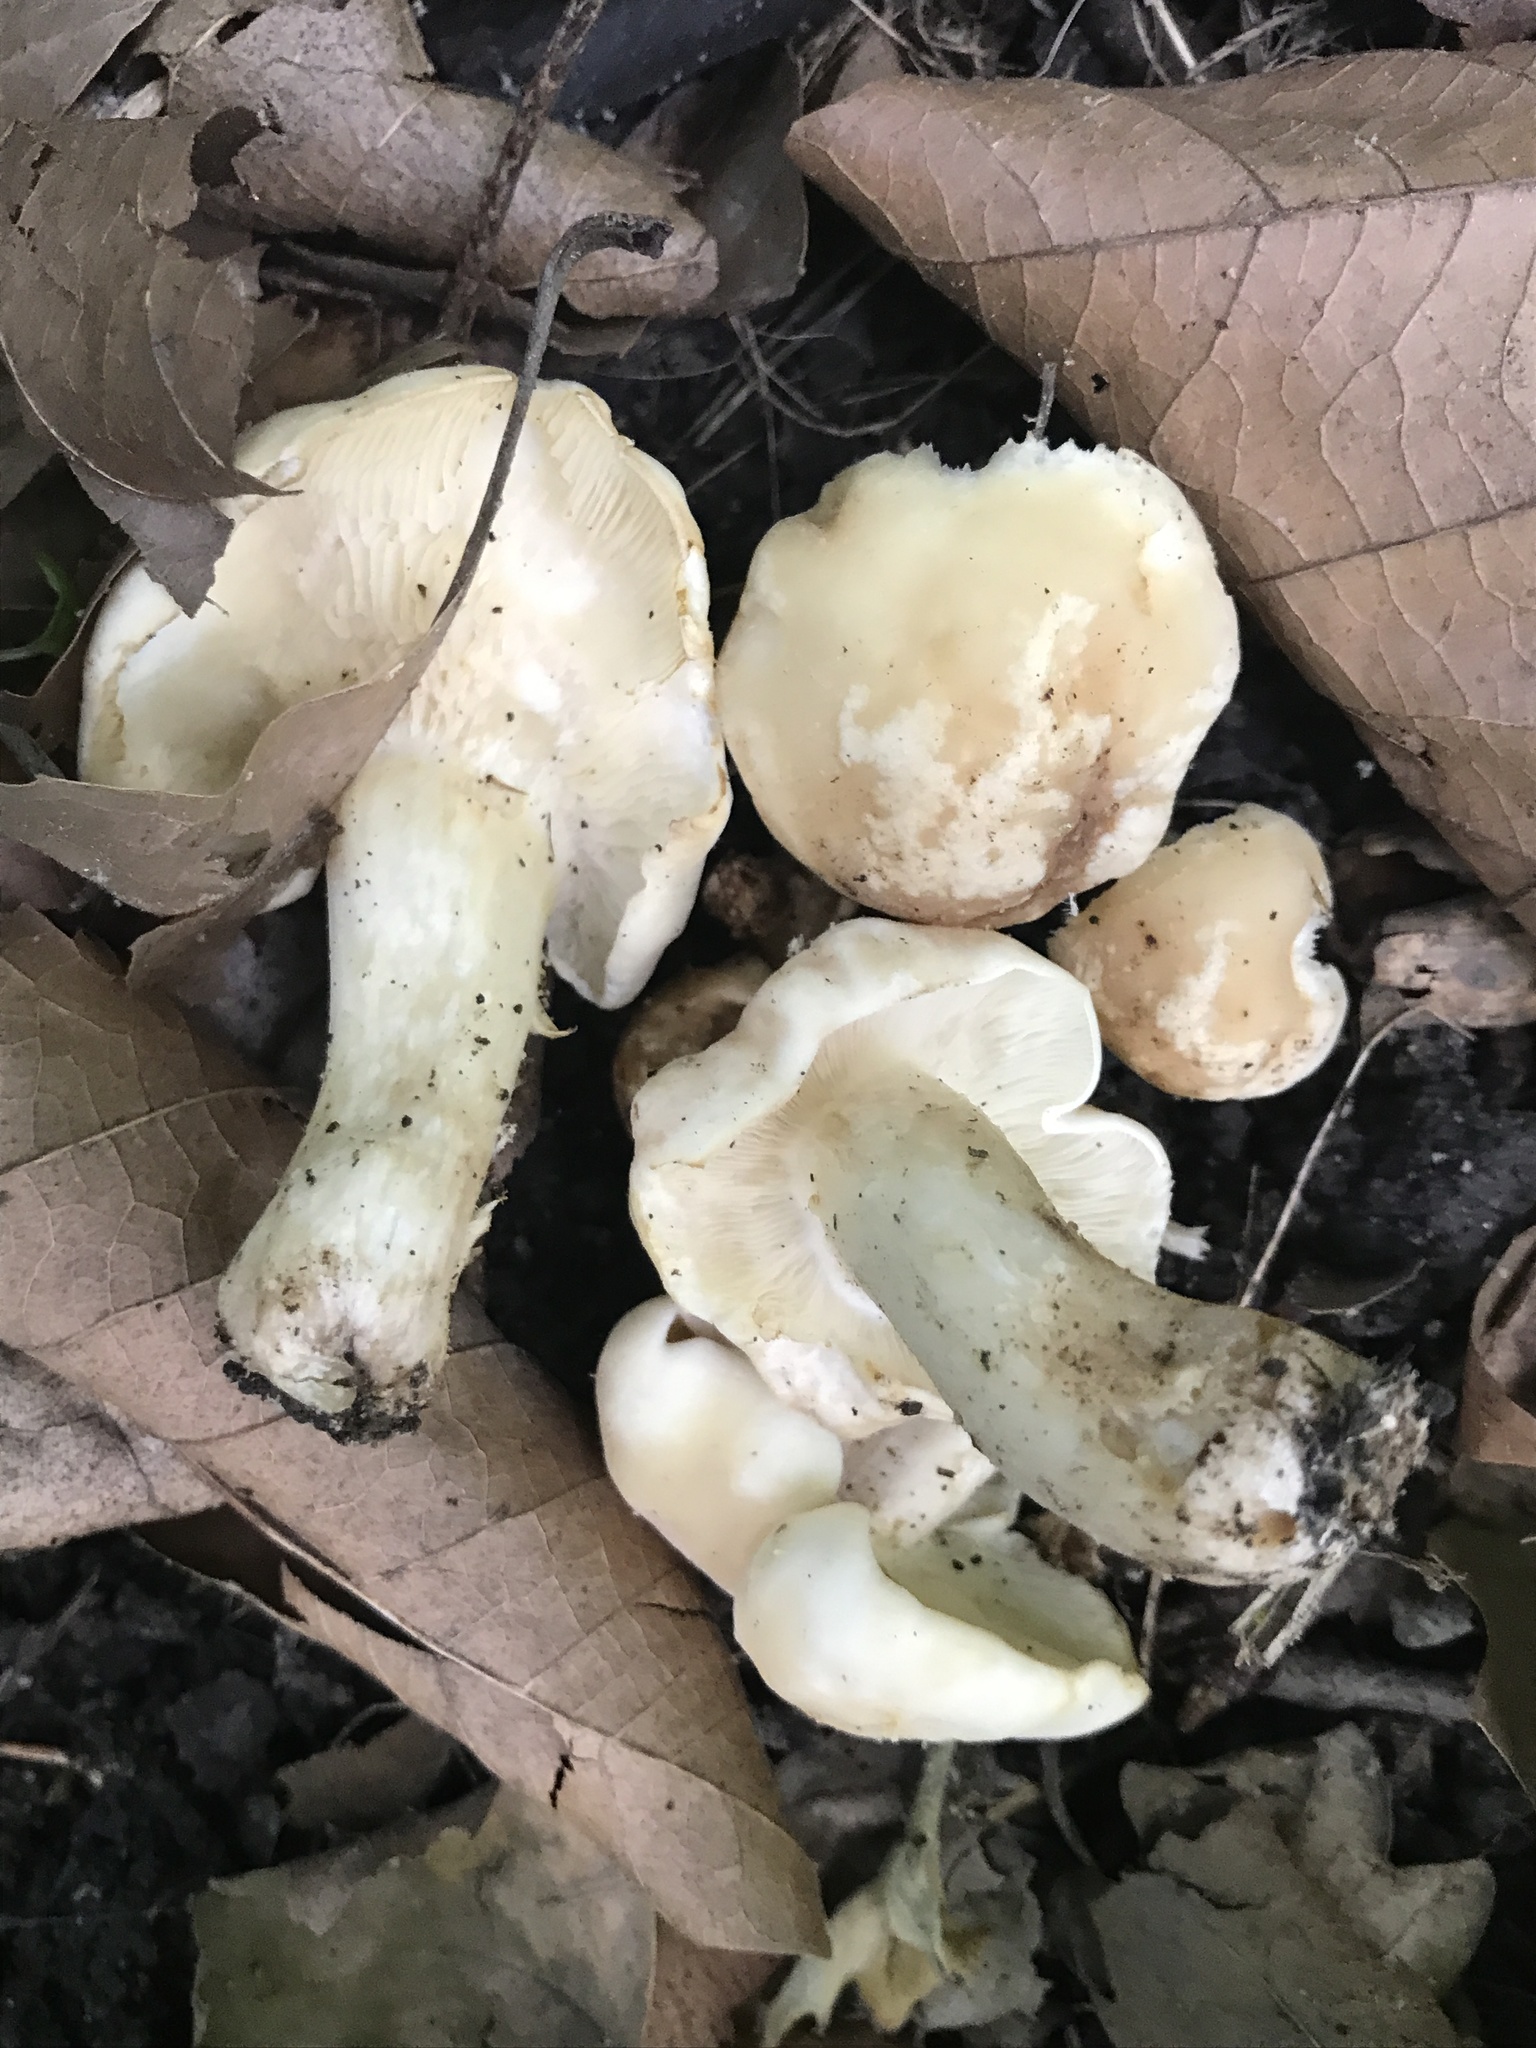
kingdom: Fungi
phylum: Basidiomycota
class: Agaricomycetes
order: Agaricales
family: Lyophyllaceae
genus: Calocybe
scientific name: Calocybe gambosa
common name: St. george's mushroom
